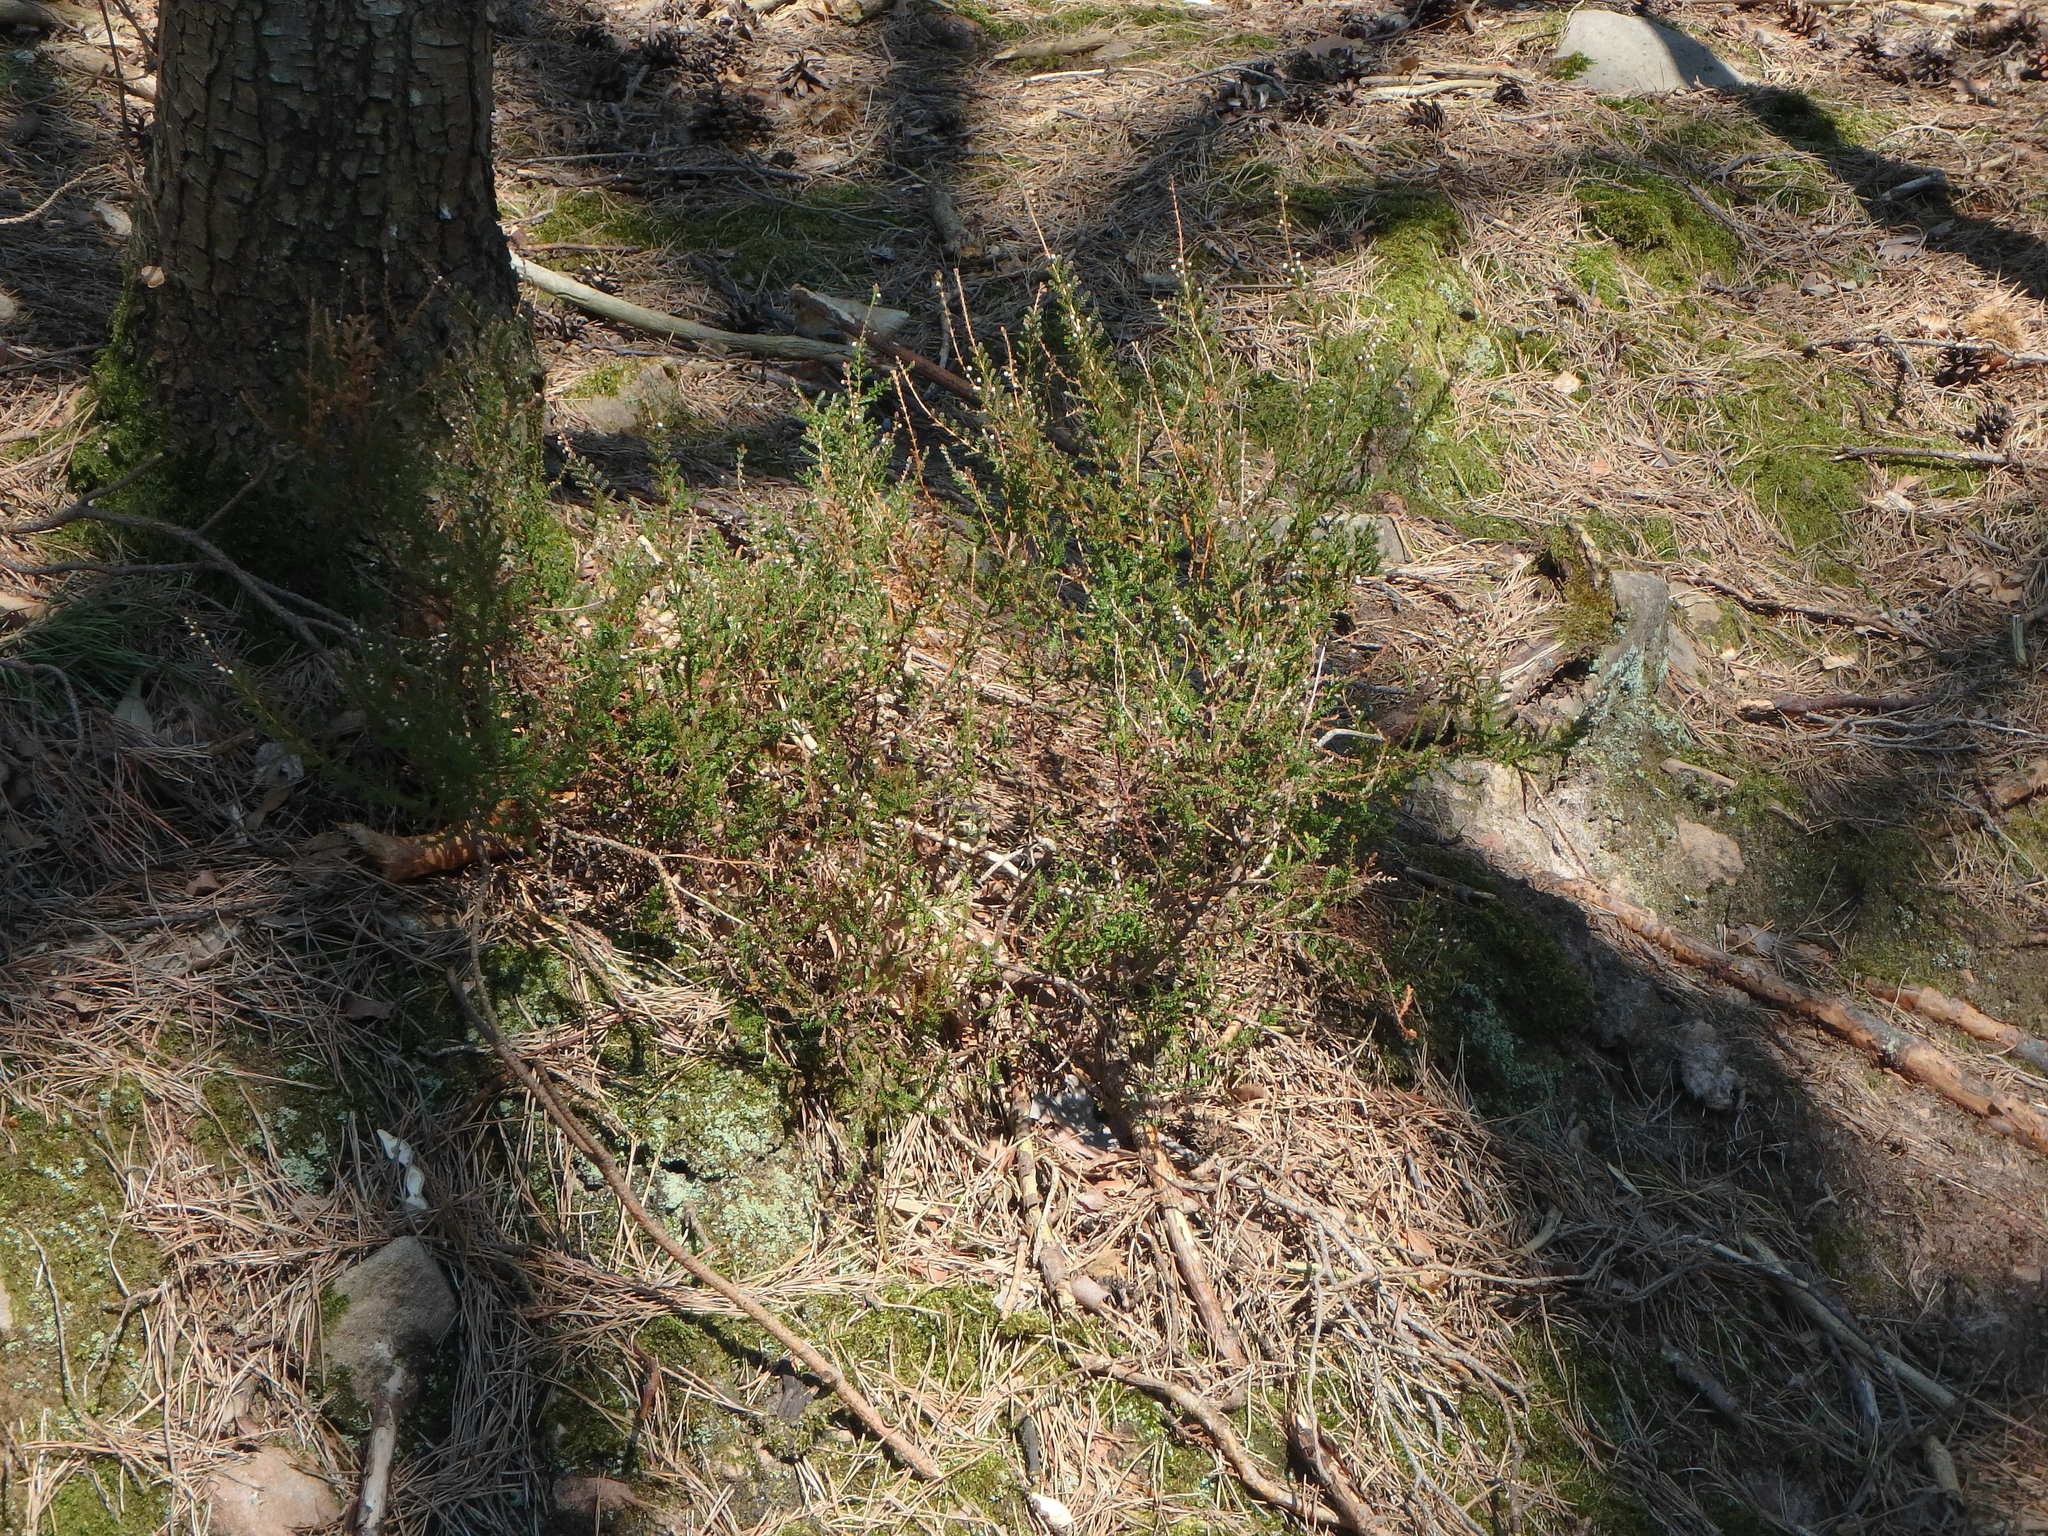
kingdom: Plantae
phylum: Tracheophyta
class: Magnoliopsida
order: Ericales
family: Ericaceae
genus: Calluna
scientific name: Calluna vulgaris
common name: Heather
